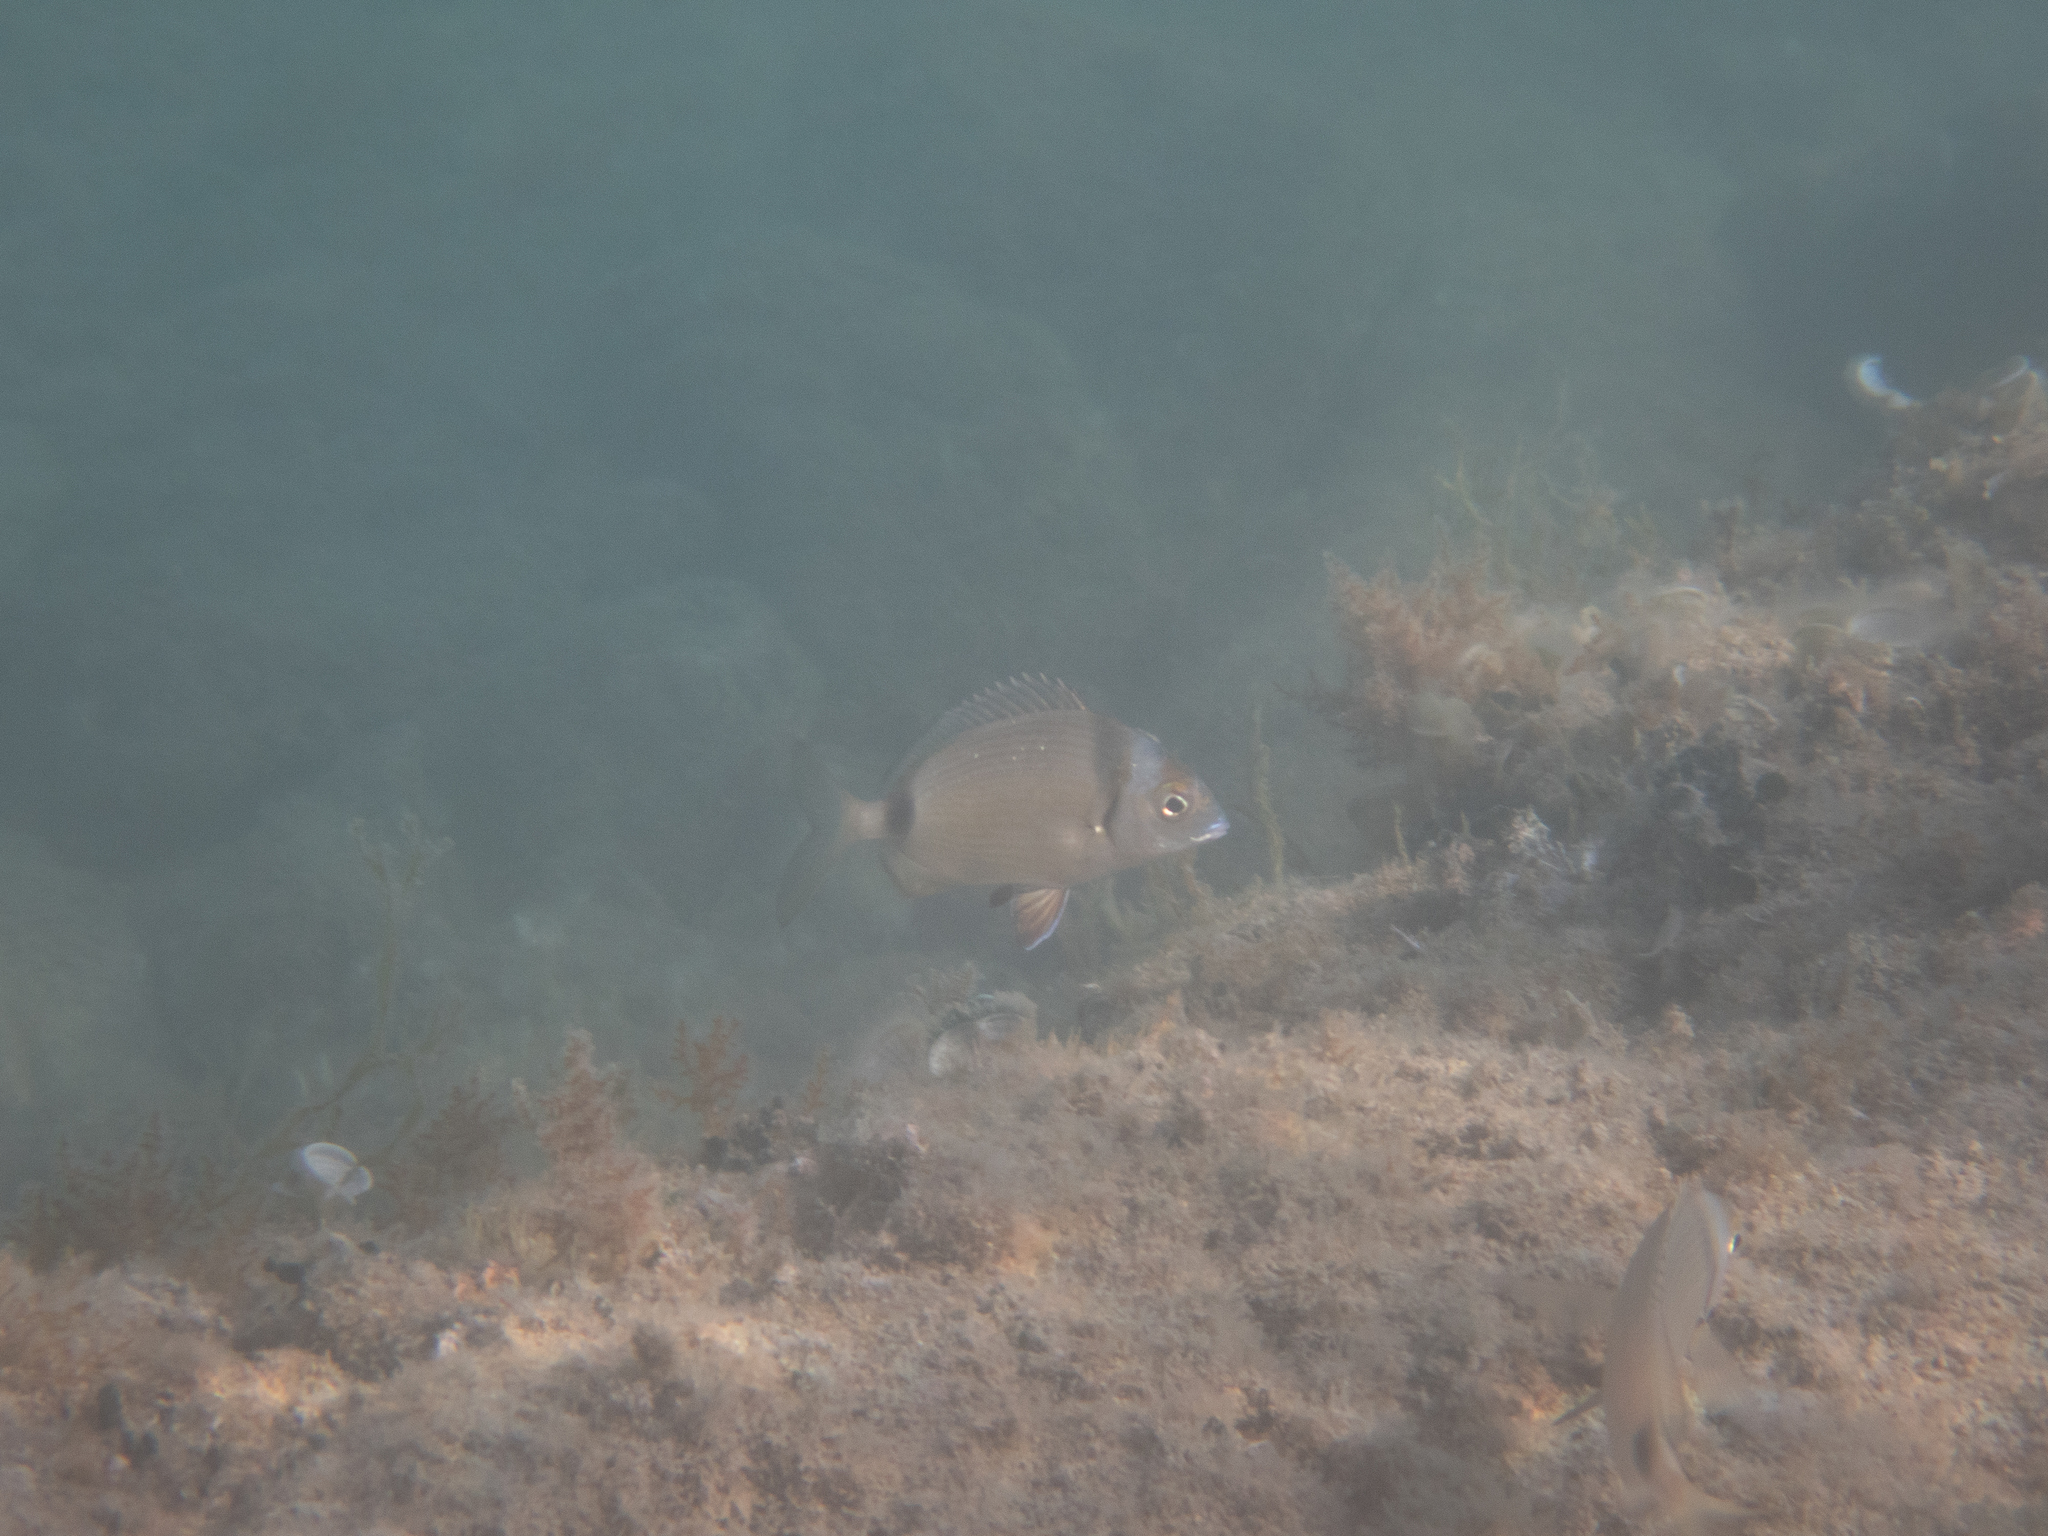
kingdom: Animalia
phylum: Chordata
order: Perciformes
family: Sparidae
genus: Diplodus
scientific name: Diplodus vulgaris
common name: Common two-banded seabream
